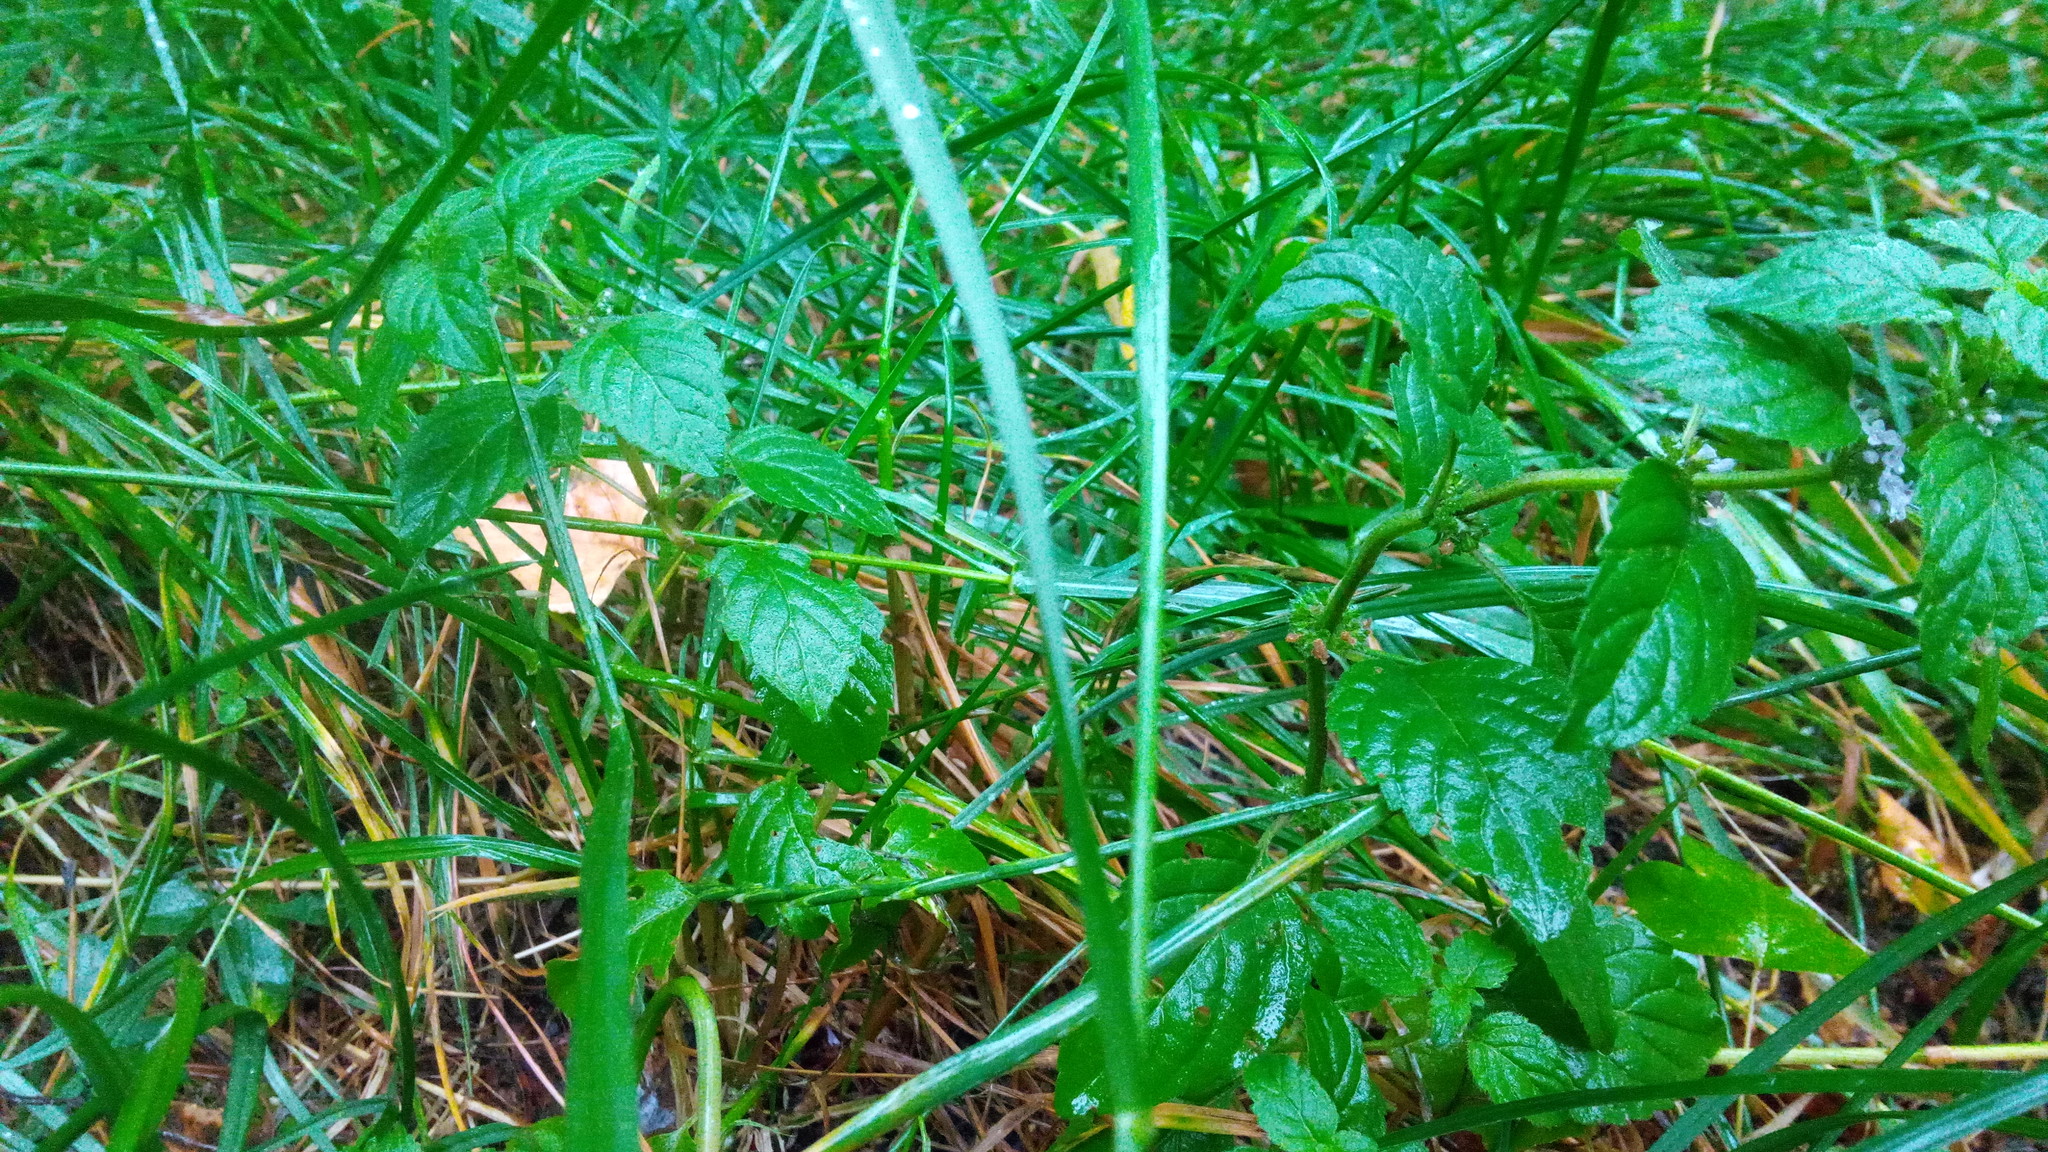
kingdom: Plantae
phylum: Tracheophyta
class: Magnoliopsida
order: Lamiales
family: Lamiaceae
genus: Mentha
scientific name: Mentha arvensis
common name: Corn mint
